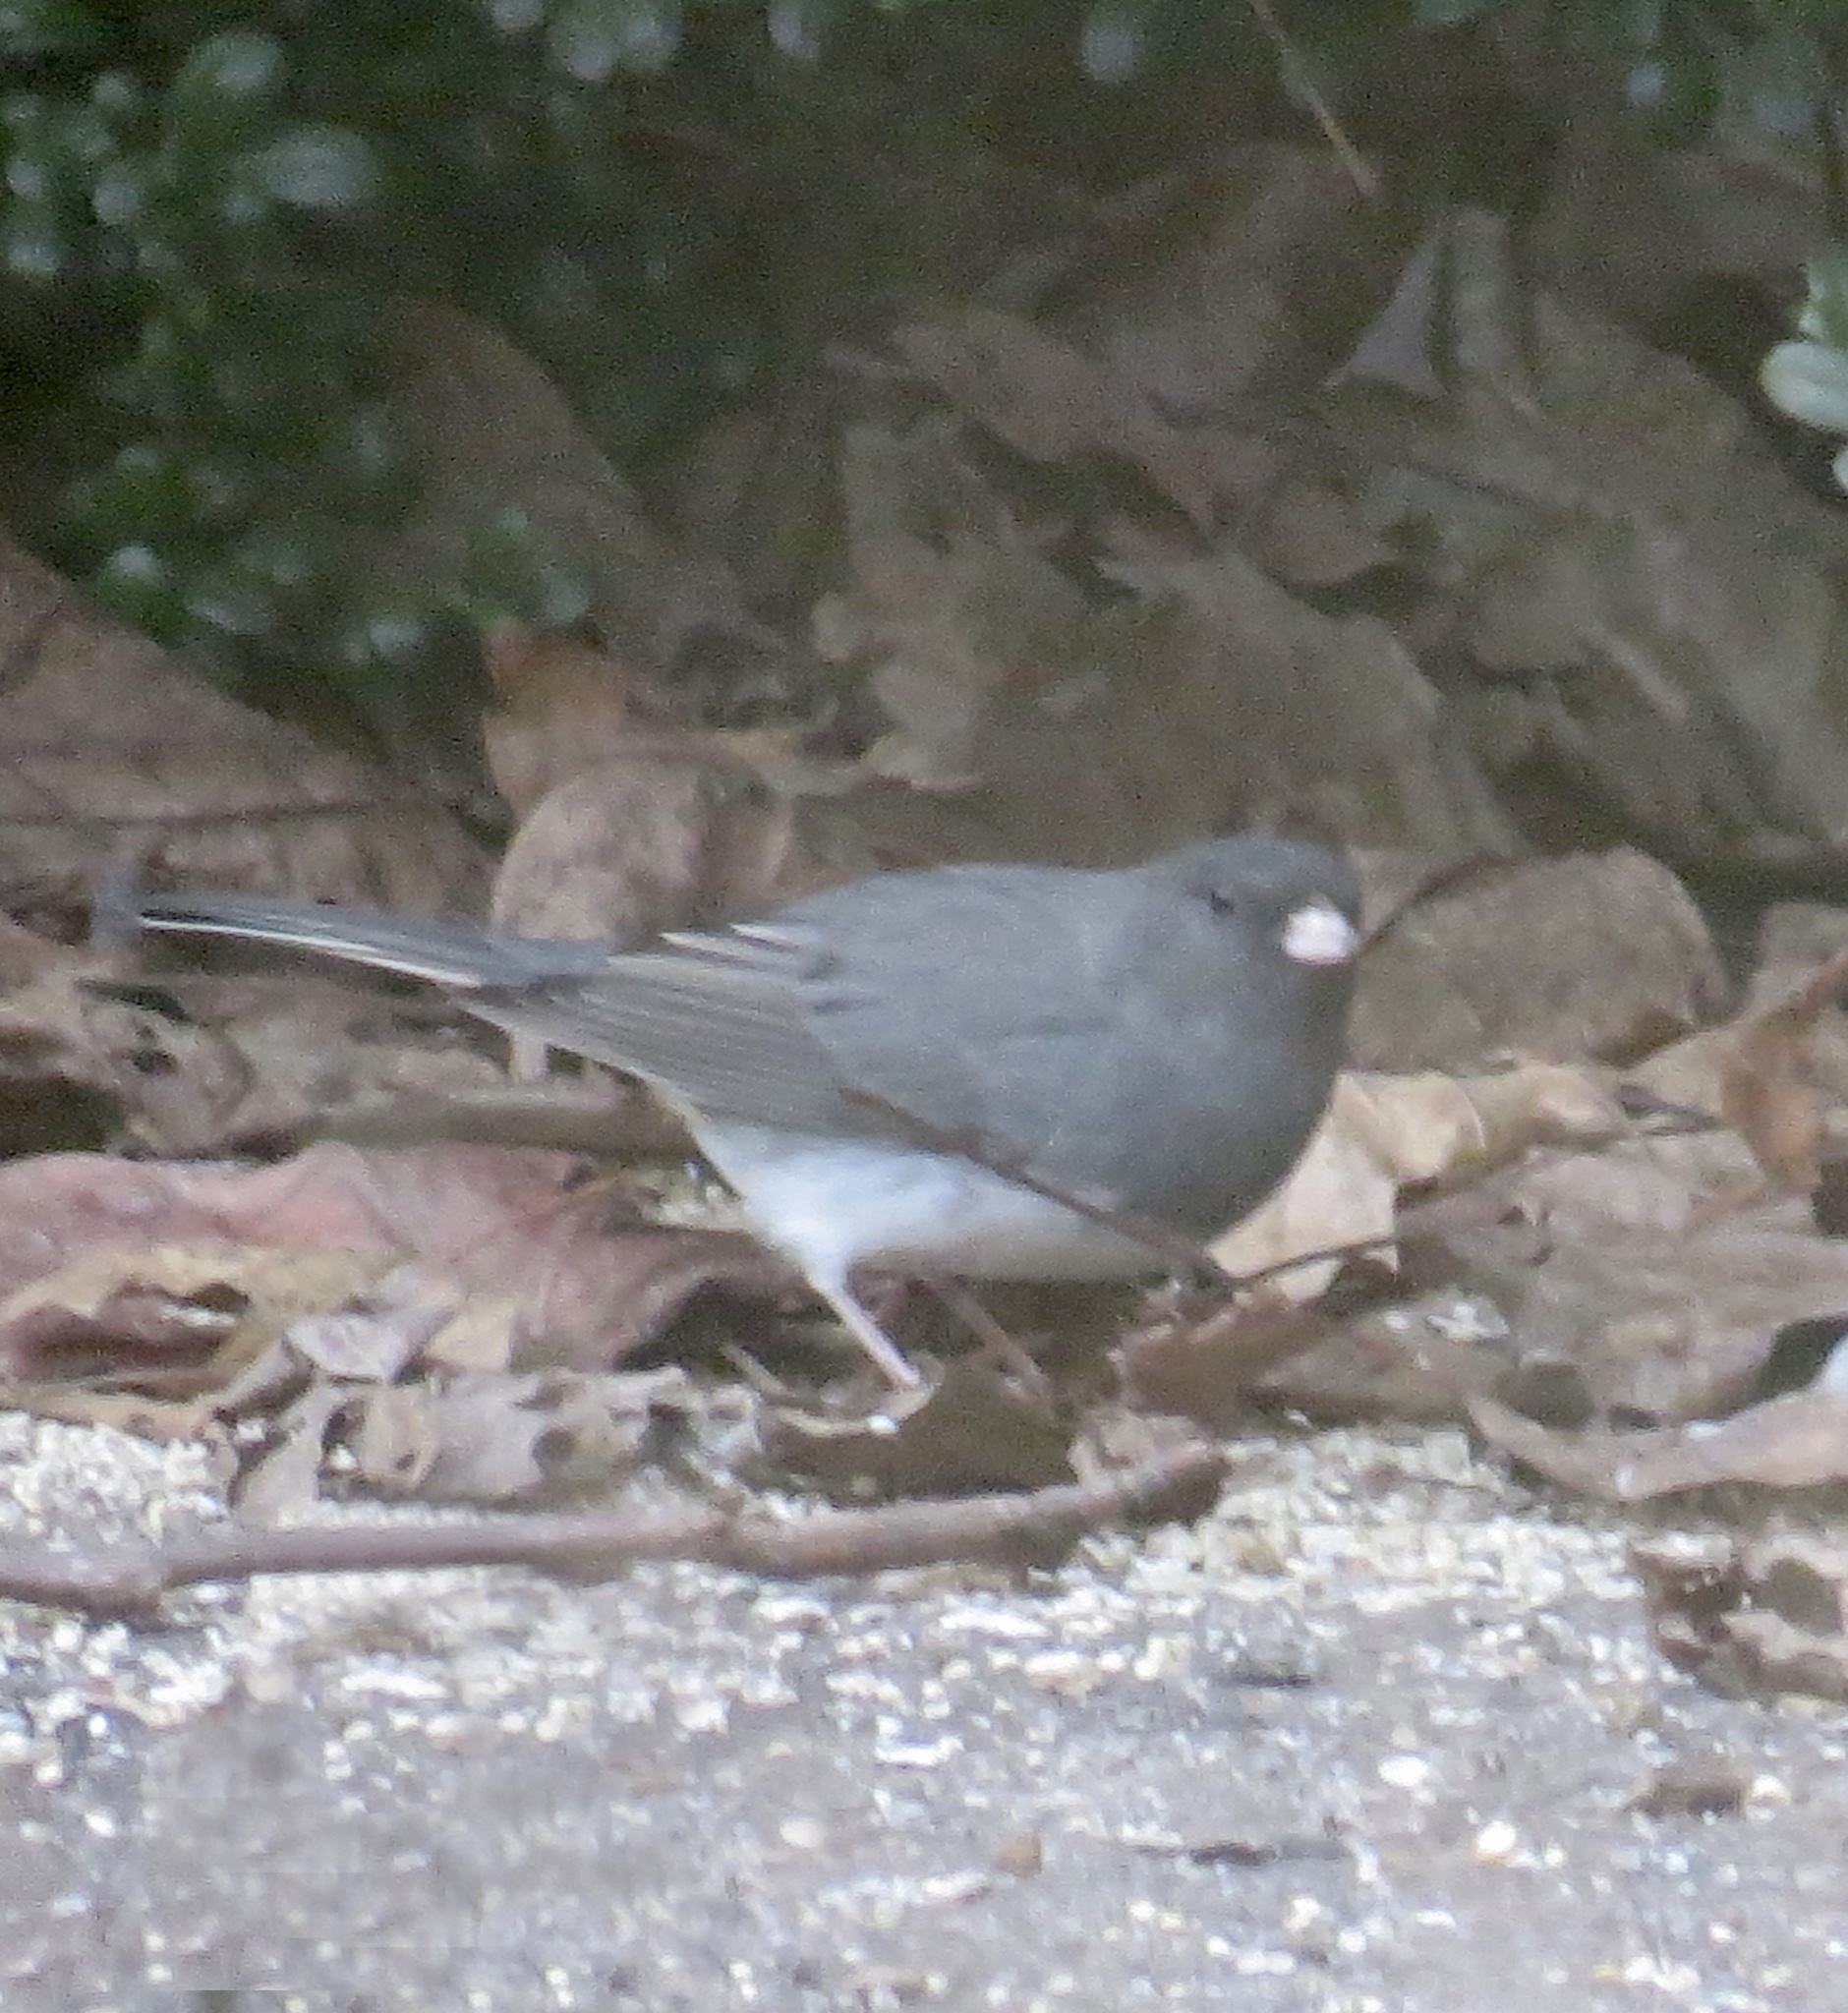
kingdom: Animalia
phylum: Chordata
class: Aves
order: Passeriformes
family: Passerellidae
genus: Junco
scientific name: Junco hyemalis
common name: Dark-eyed junco
